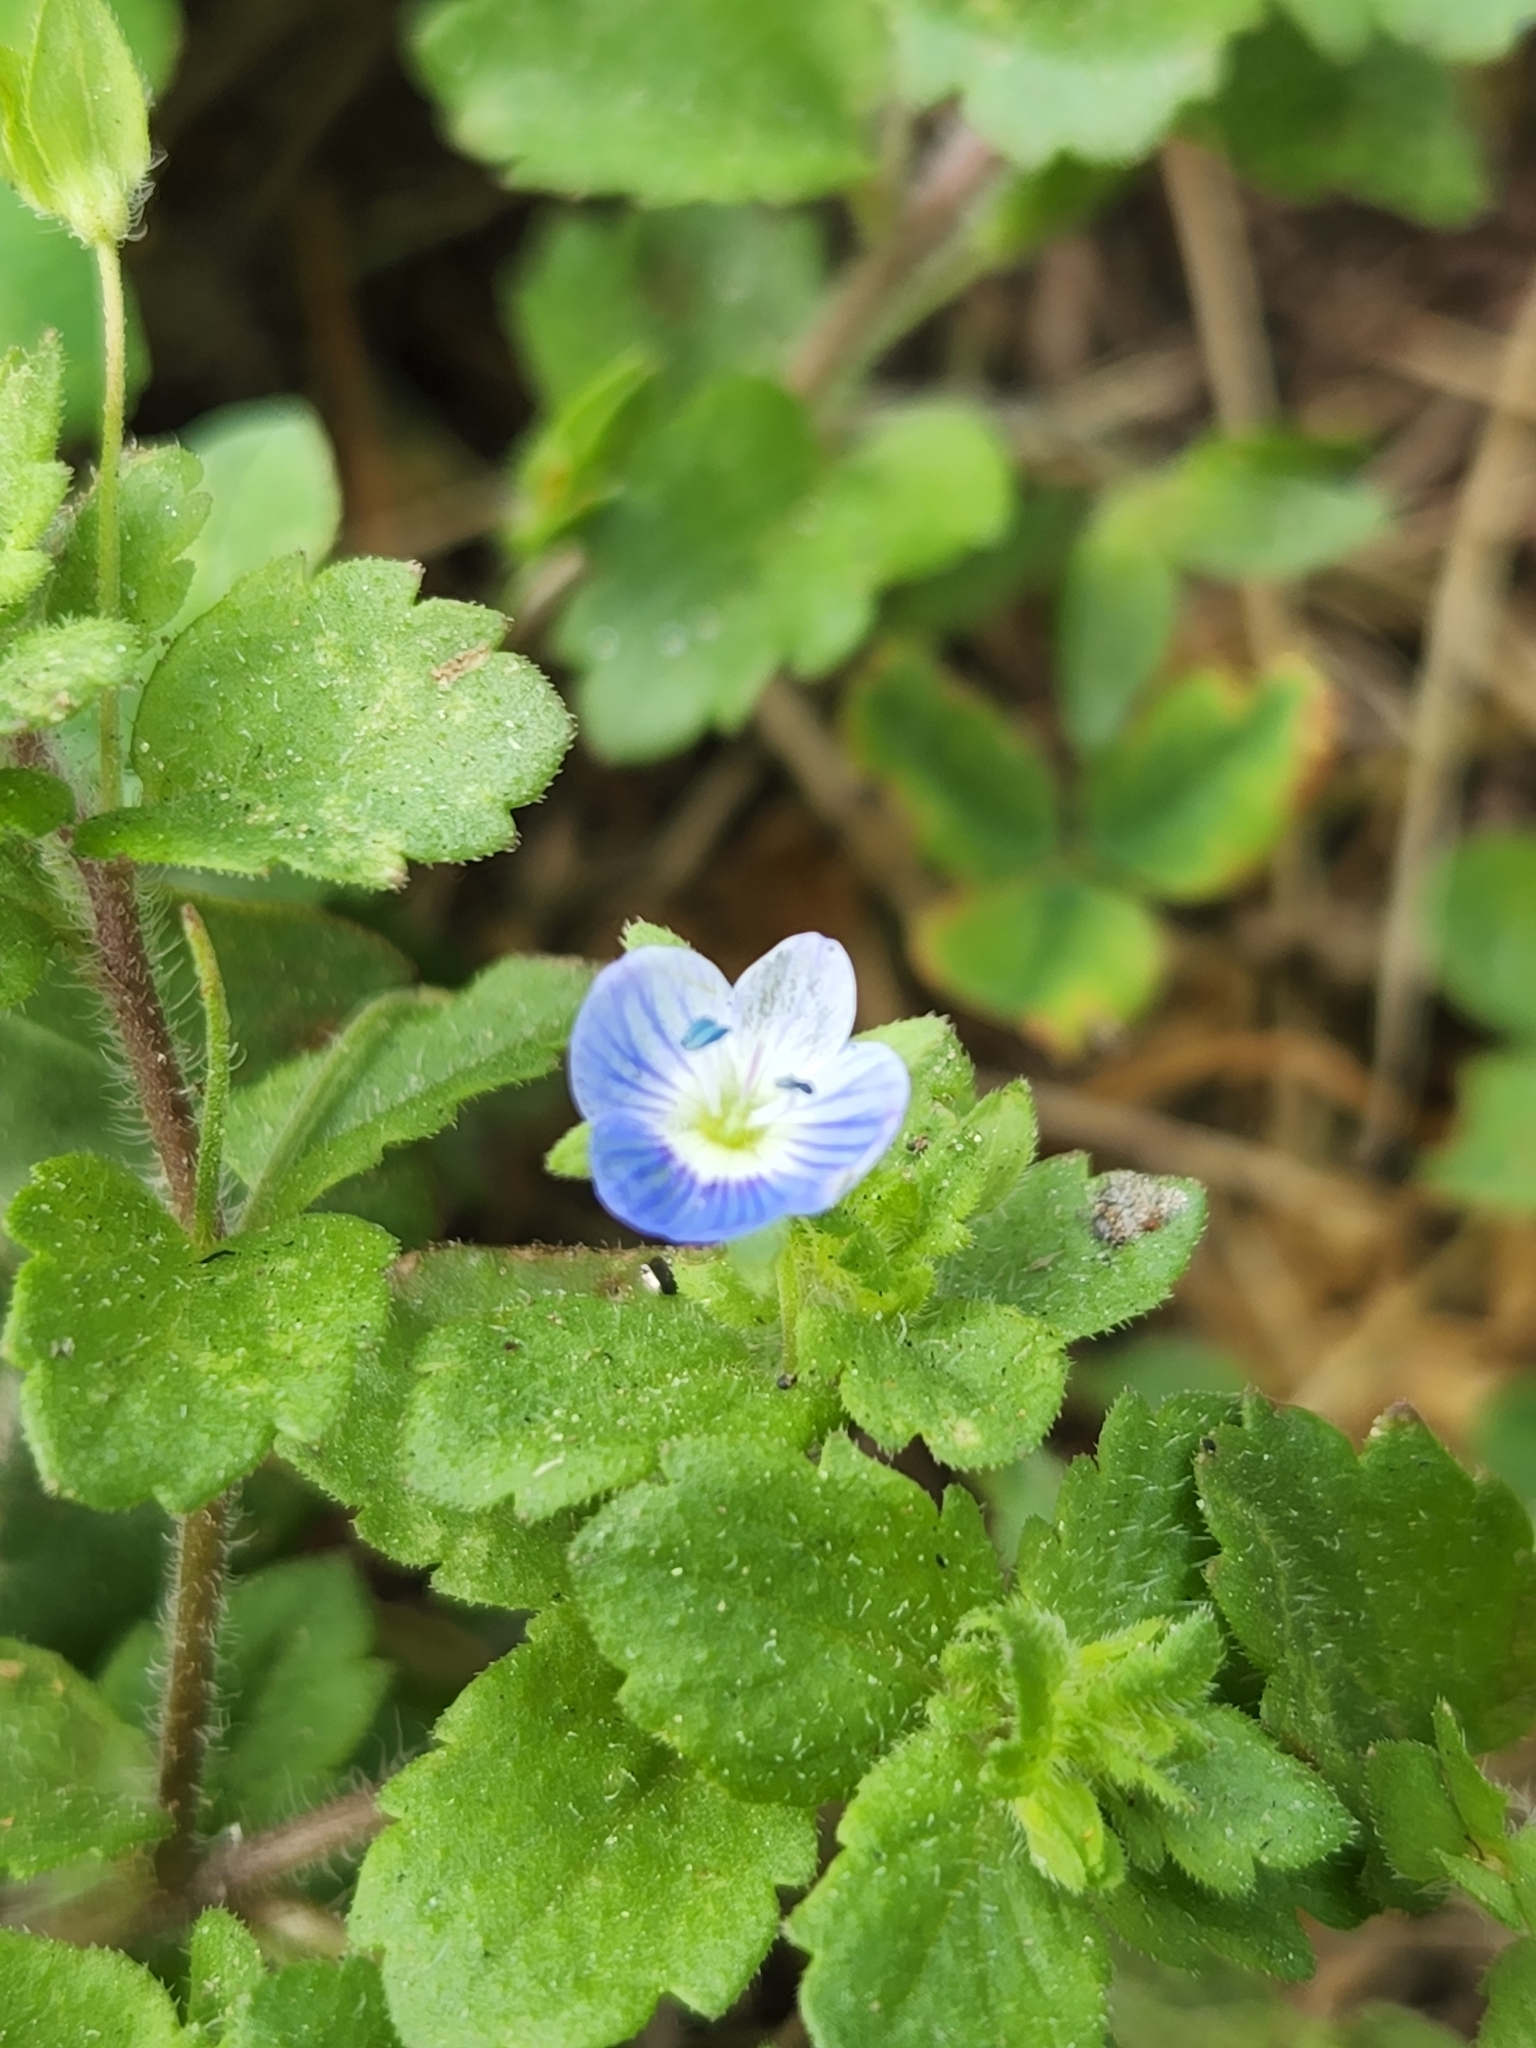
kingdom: Plantae
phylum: Tracheophyta
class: Magnoliopsida
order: Lamiales
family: Plantaginaceae
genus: Veronica
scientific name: Veronica persica
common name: Common field-speedwell
